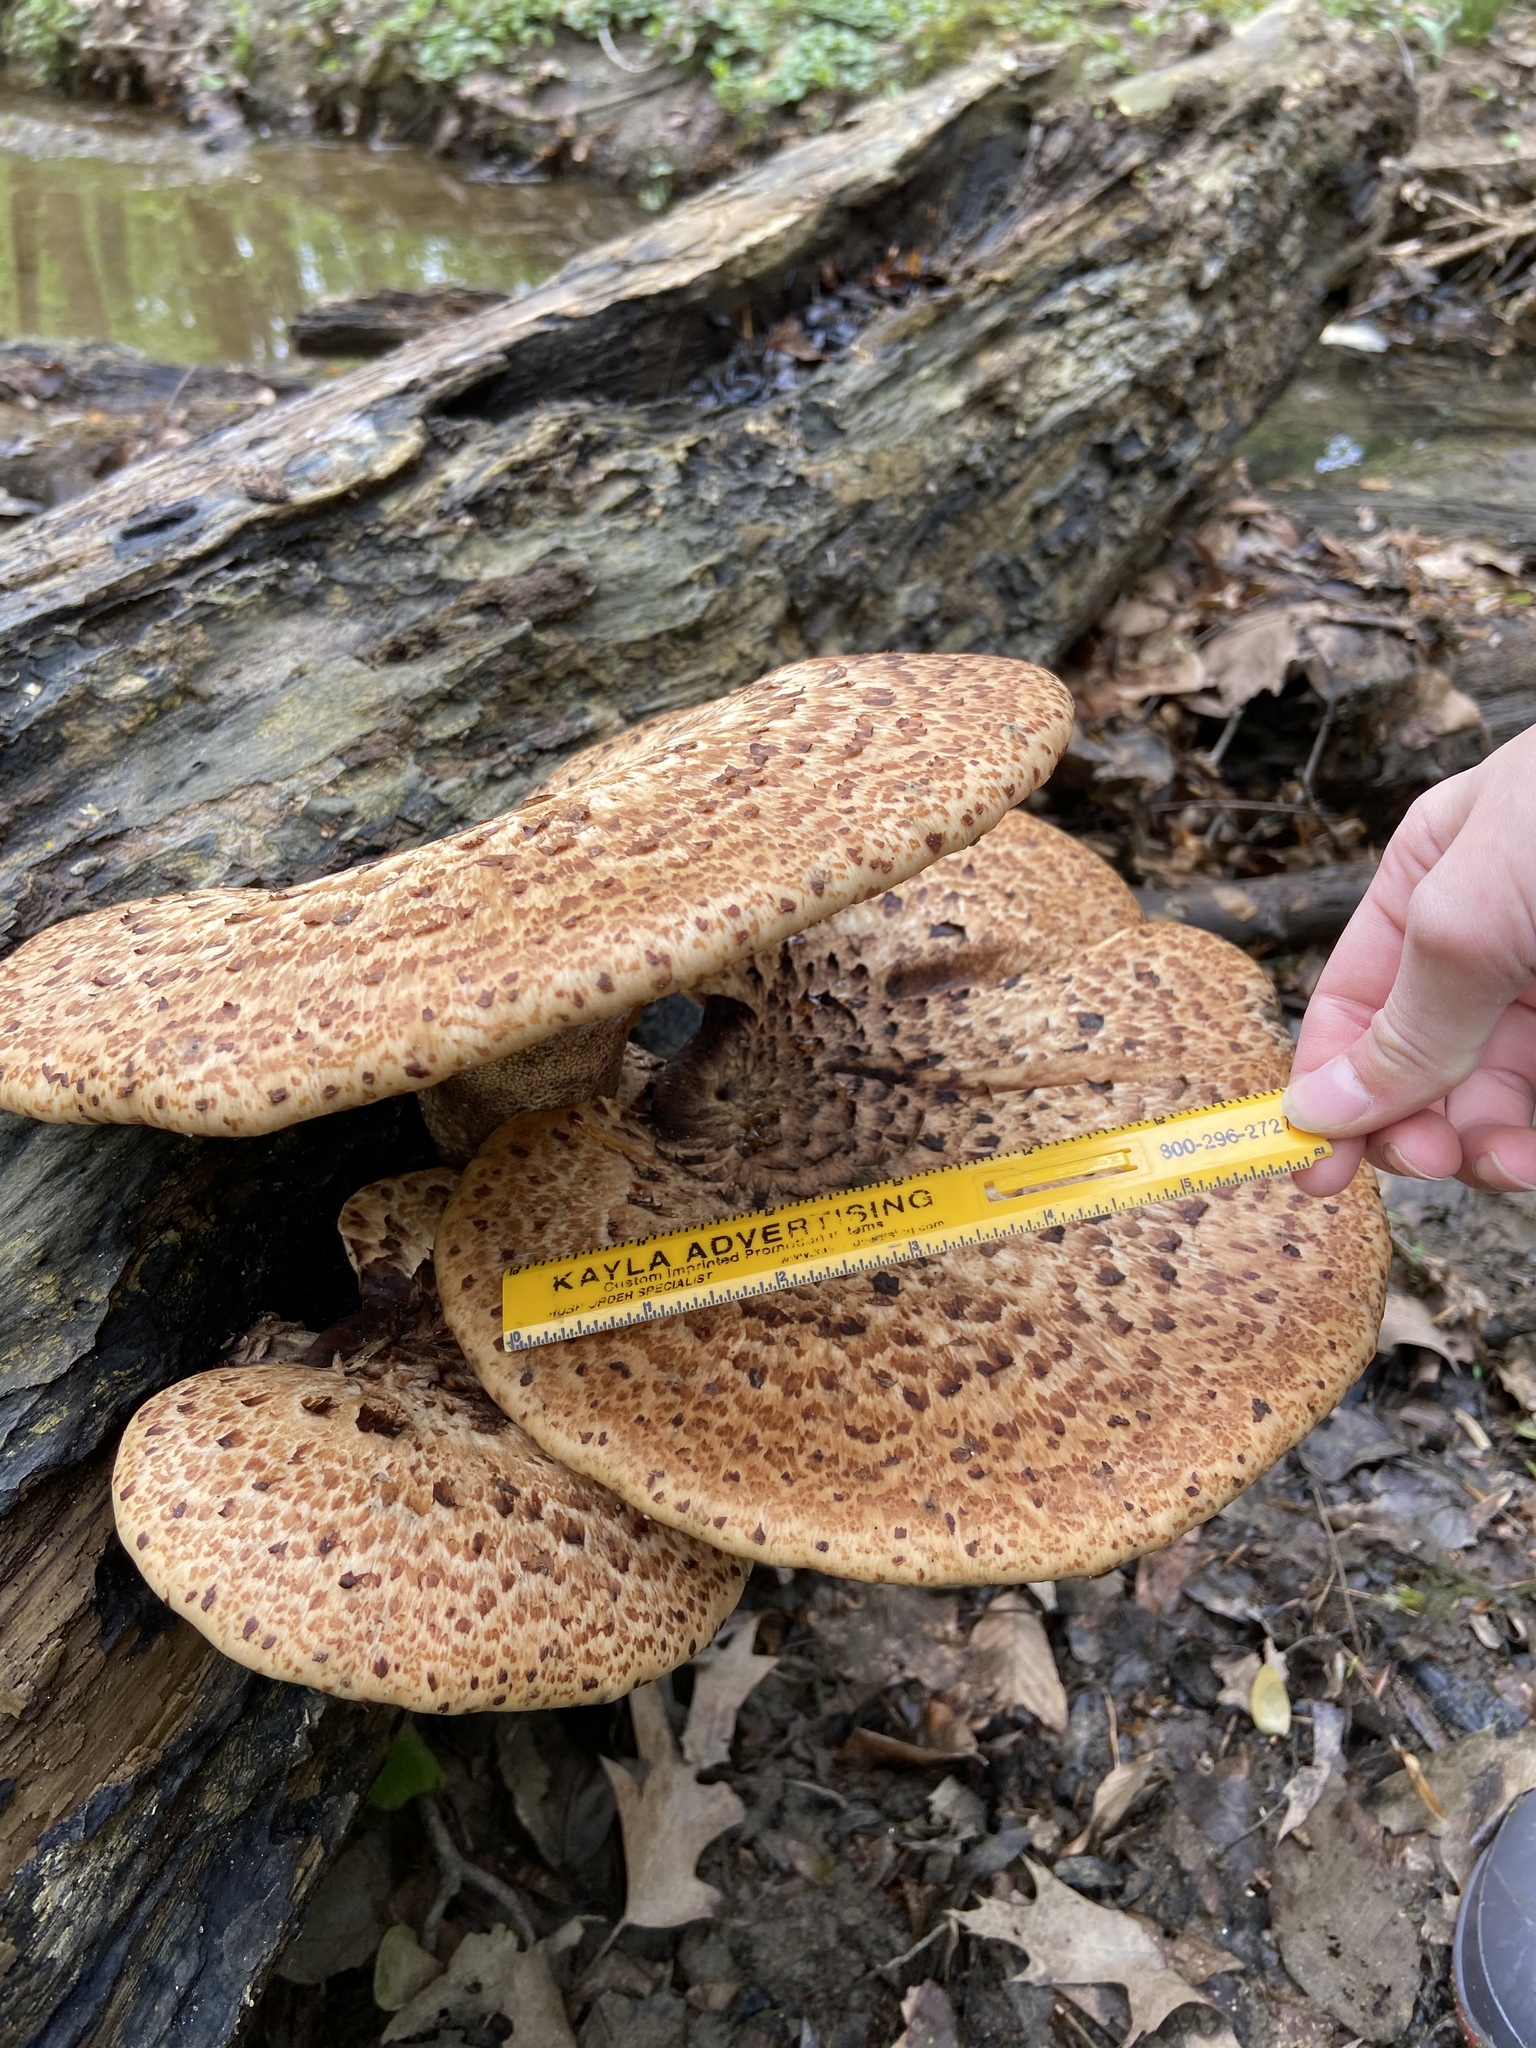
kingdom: Fungi
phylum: Basidiomycota
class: Agaricomycetes
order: Polyporales
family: Polyporaceae
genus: Cerioporus
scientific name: Cerioporus squamosus
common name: Dryad's saddle
